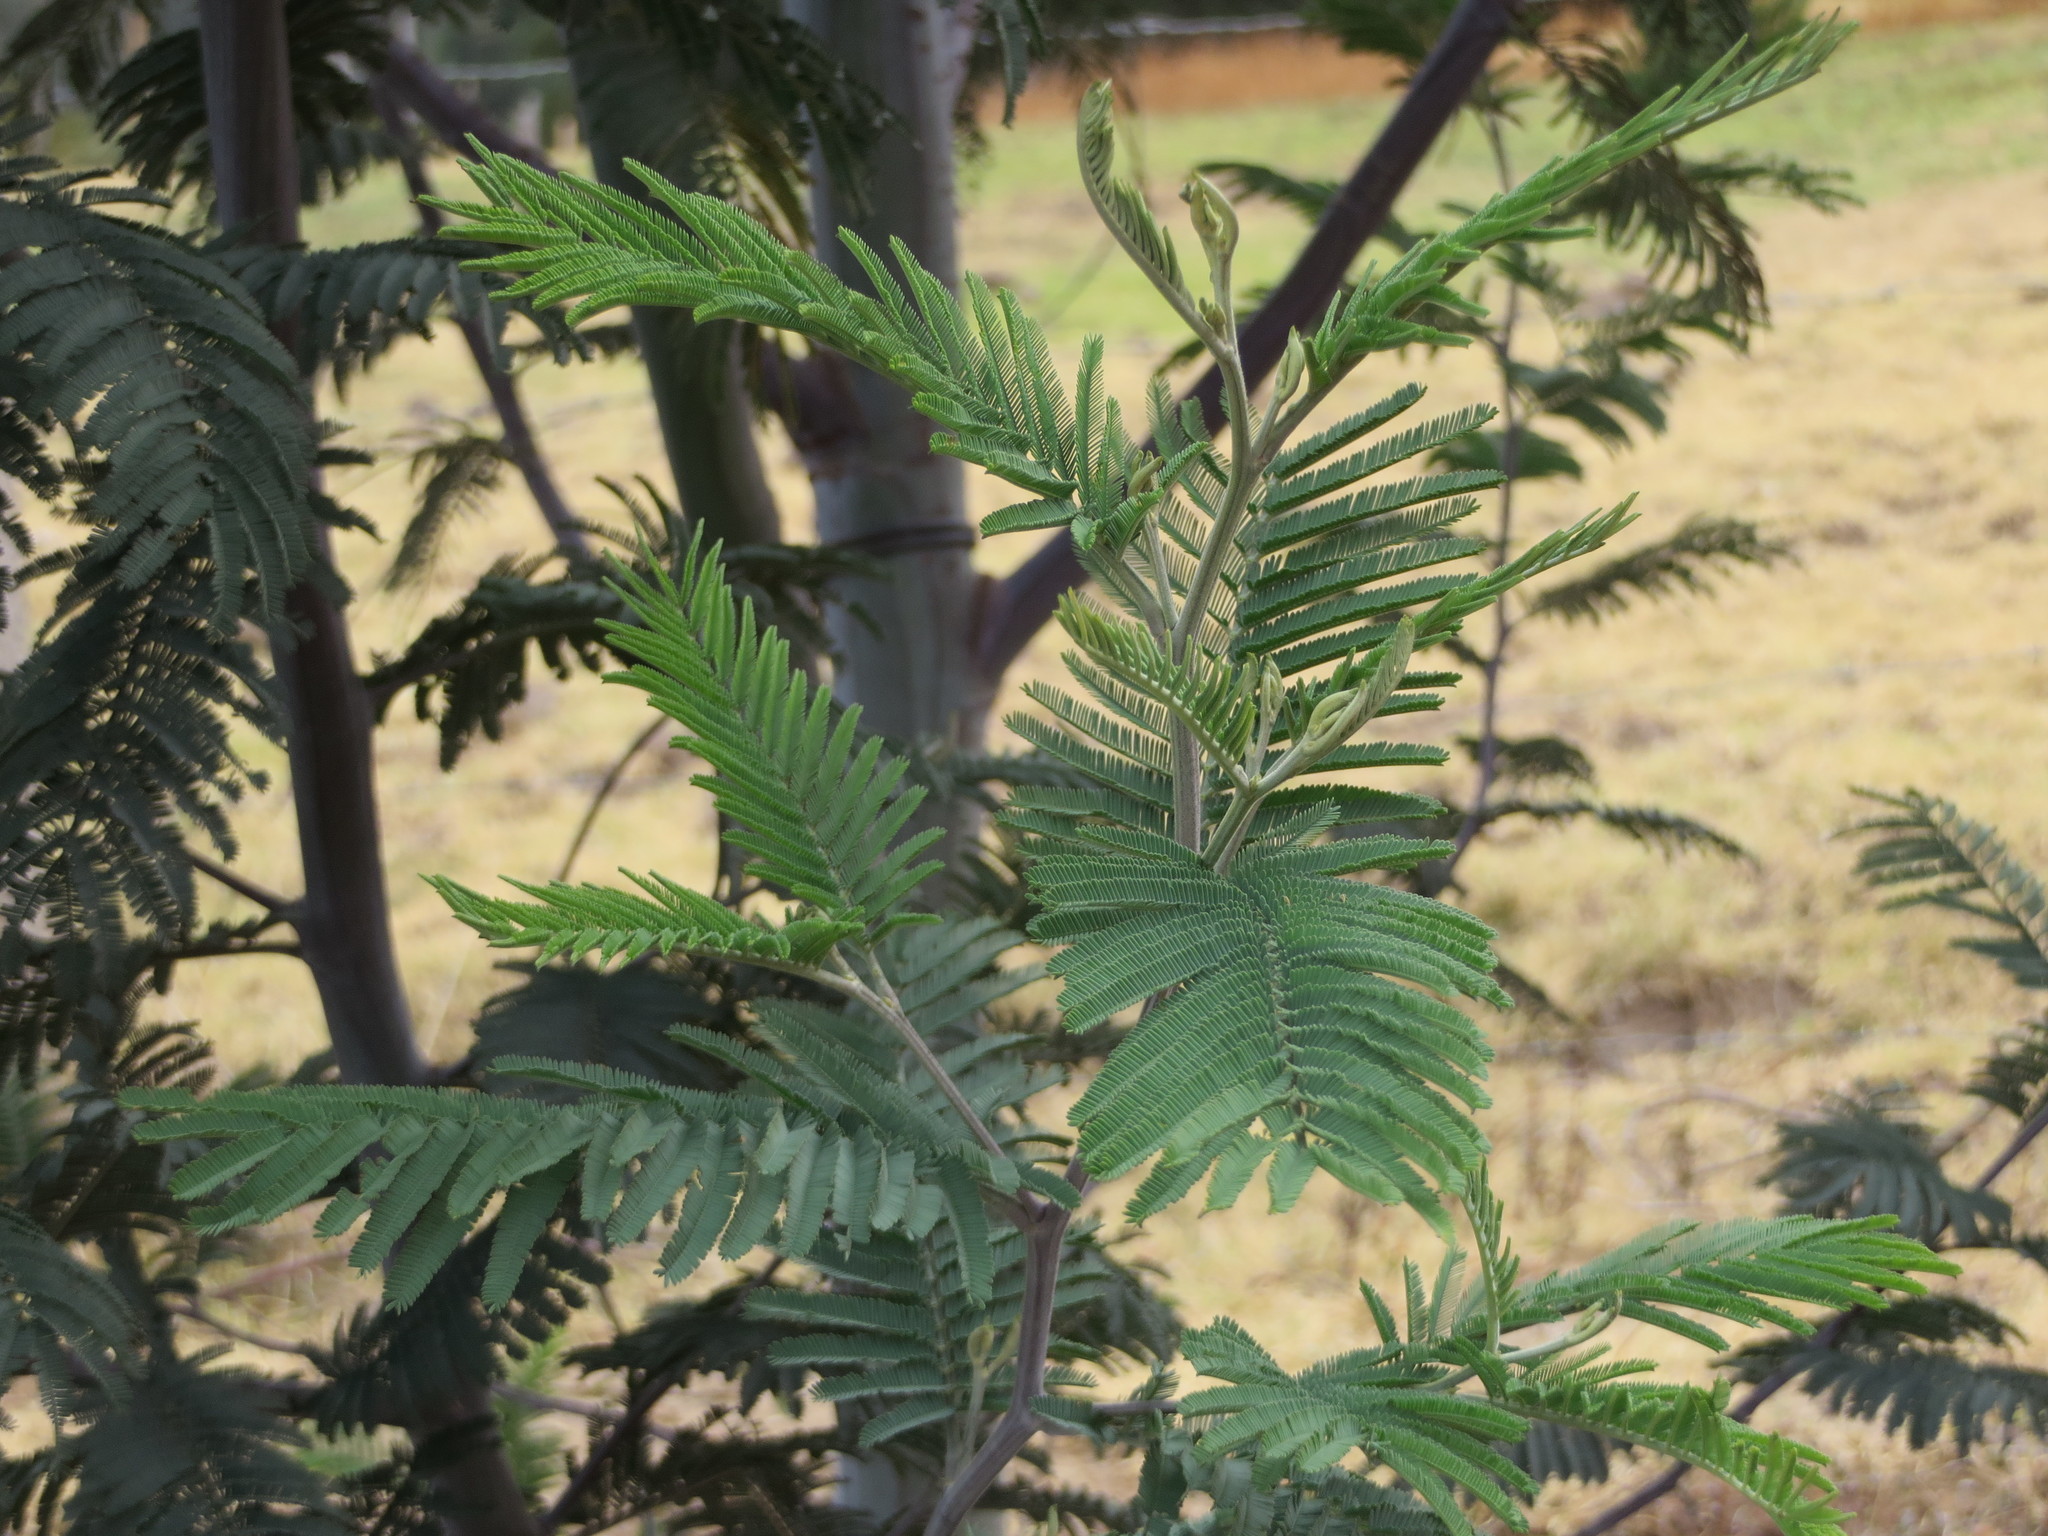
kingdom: Plantae
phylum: Tracheophyta
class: Magnoliopsida
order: Fabales
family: Fabaceae
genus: Acacia
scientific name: Acacia dealbata
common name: Silver wattle
